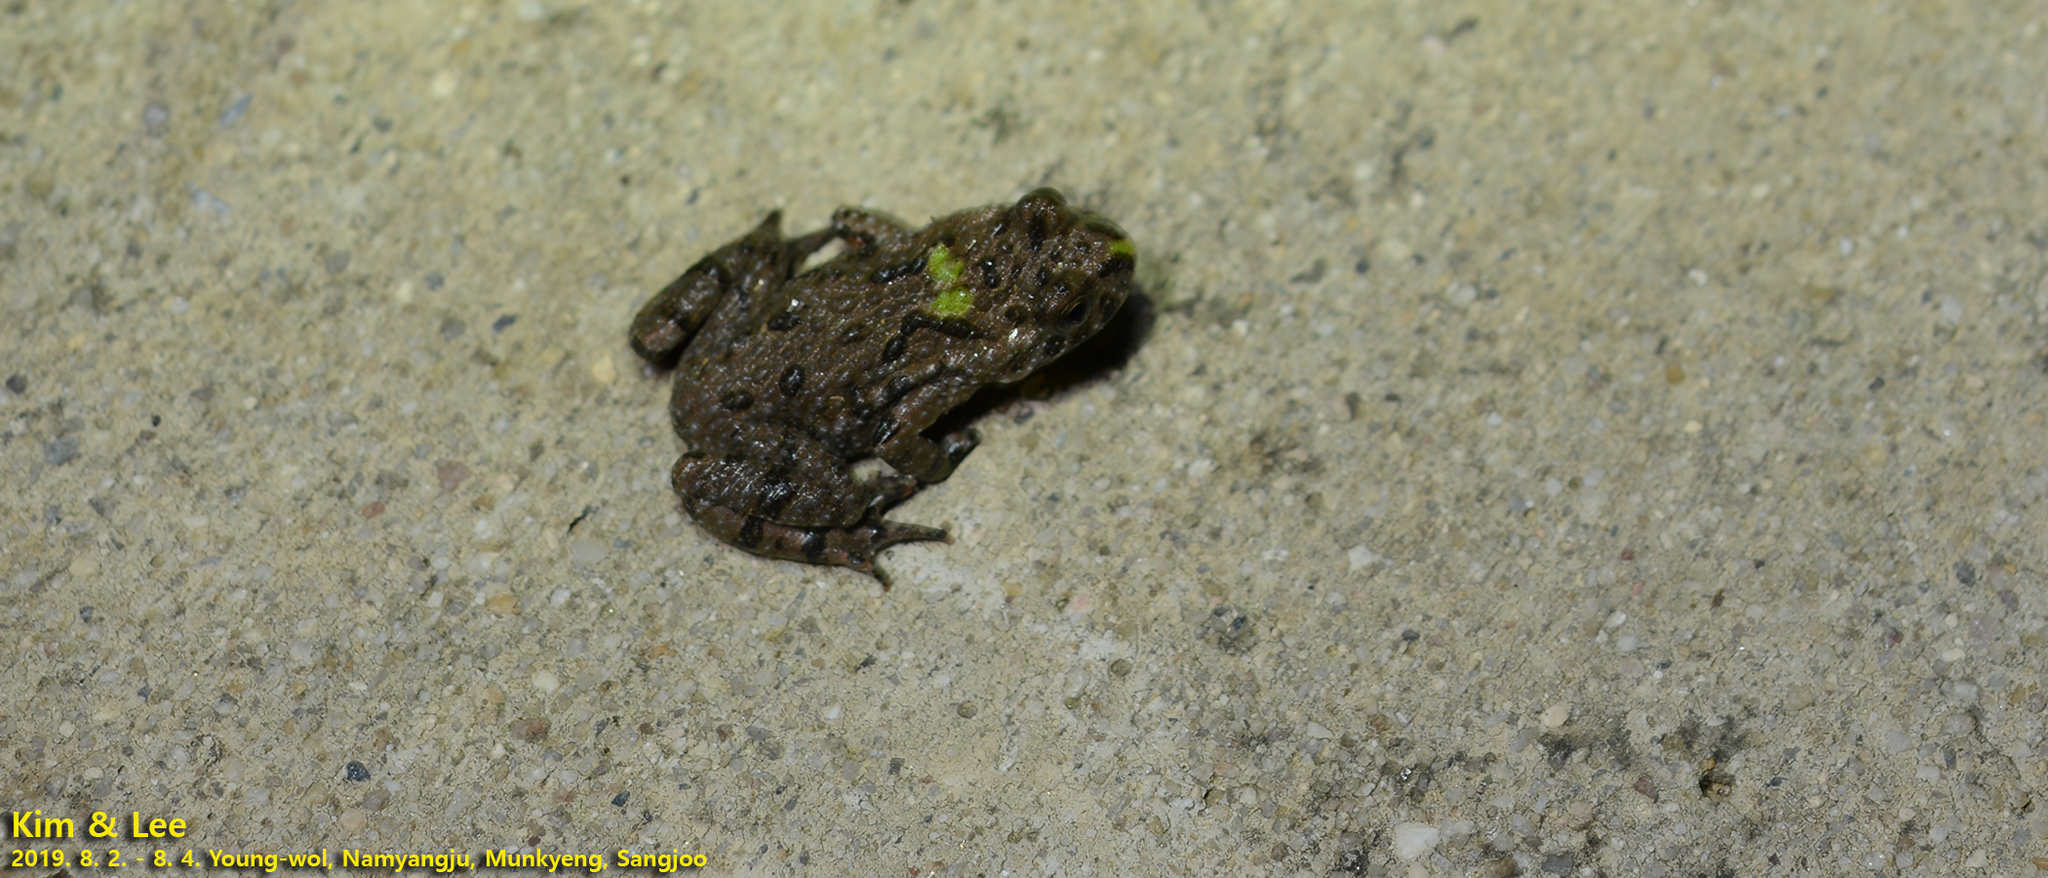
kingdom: Animalia
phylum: Chordata
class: Amphibia
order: Anura
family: Bombinatoridae
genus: Bombina
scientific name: Bombina orientalis
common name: Oriental firebelly toad
